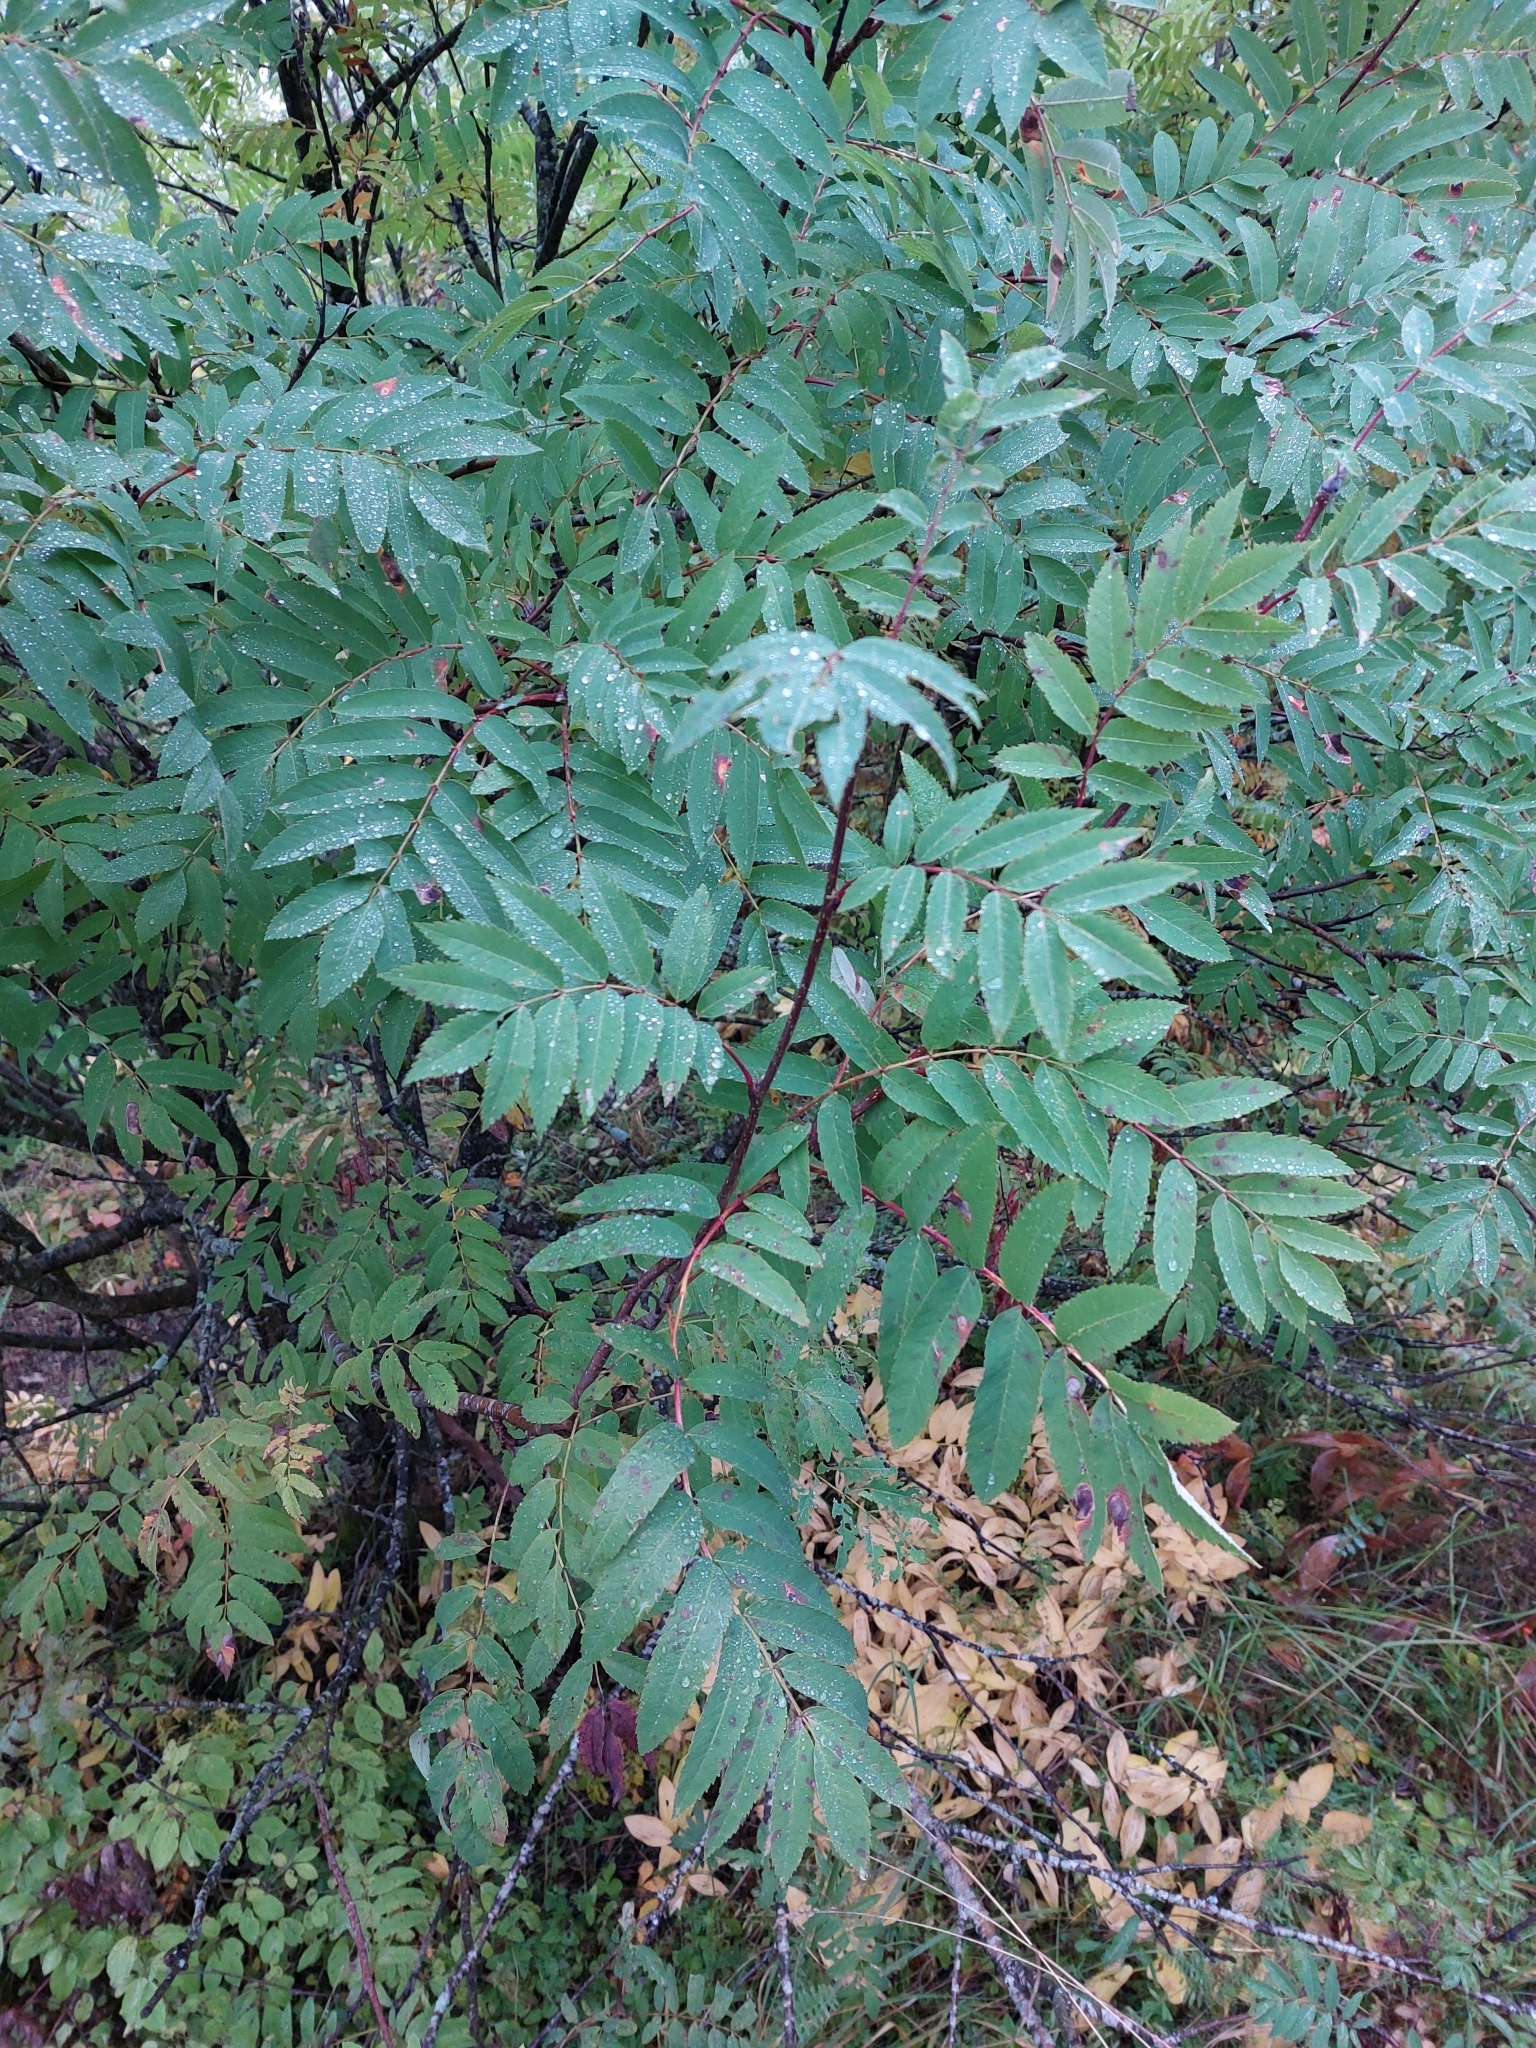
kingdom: Plantae
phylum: Tracheophyta
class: Magnoliopsida
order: Rosales
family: Rosaceae
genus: Sorbus
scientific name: Sorbus aucuparia
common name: Rowan
